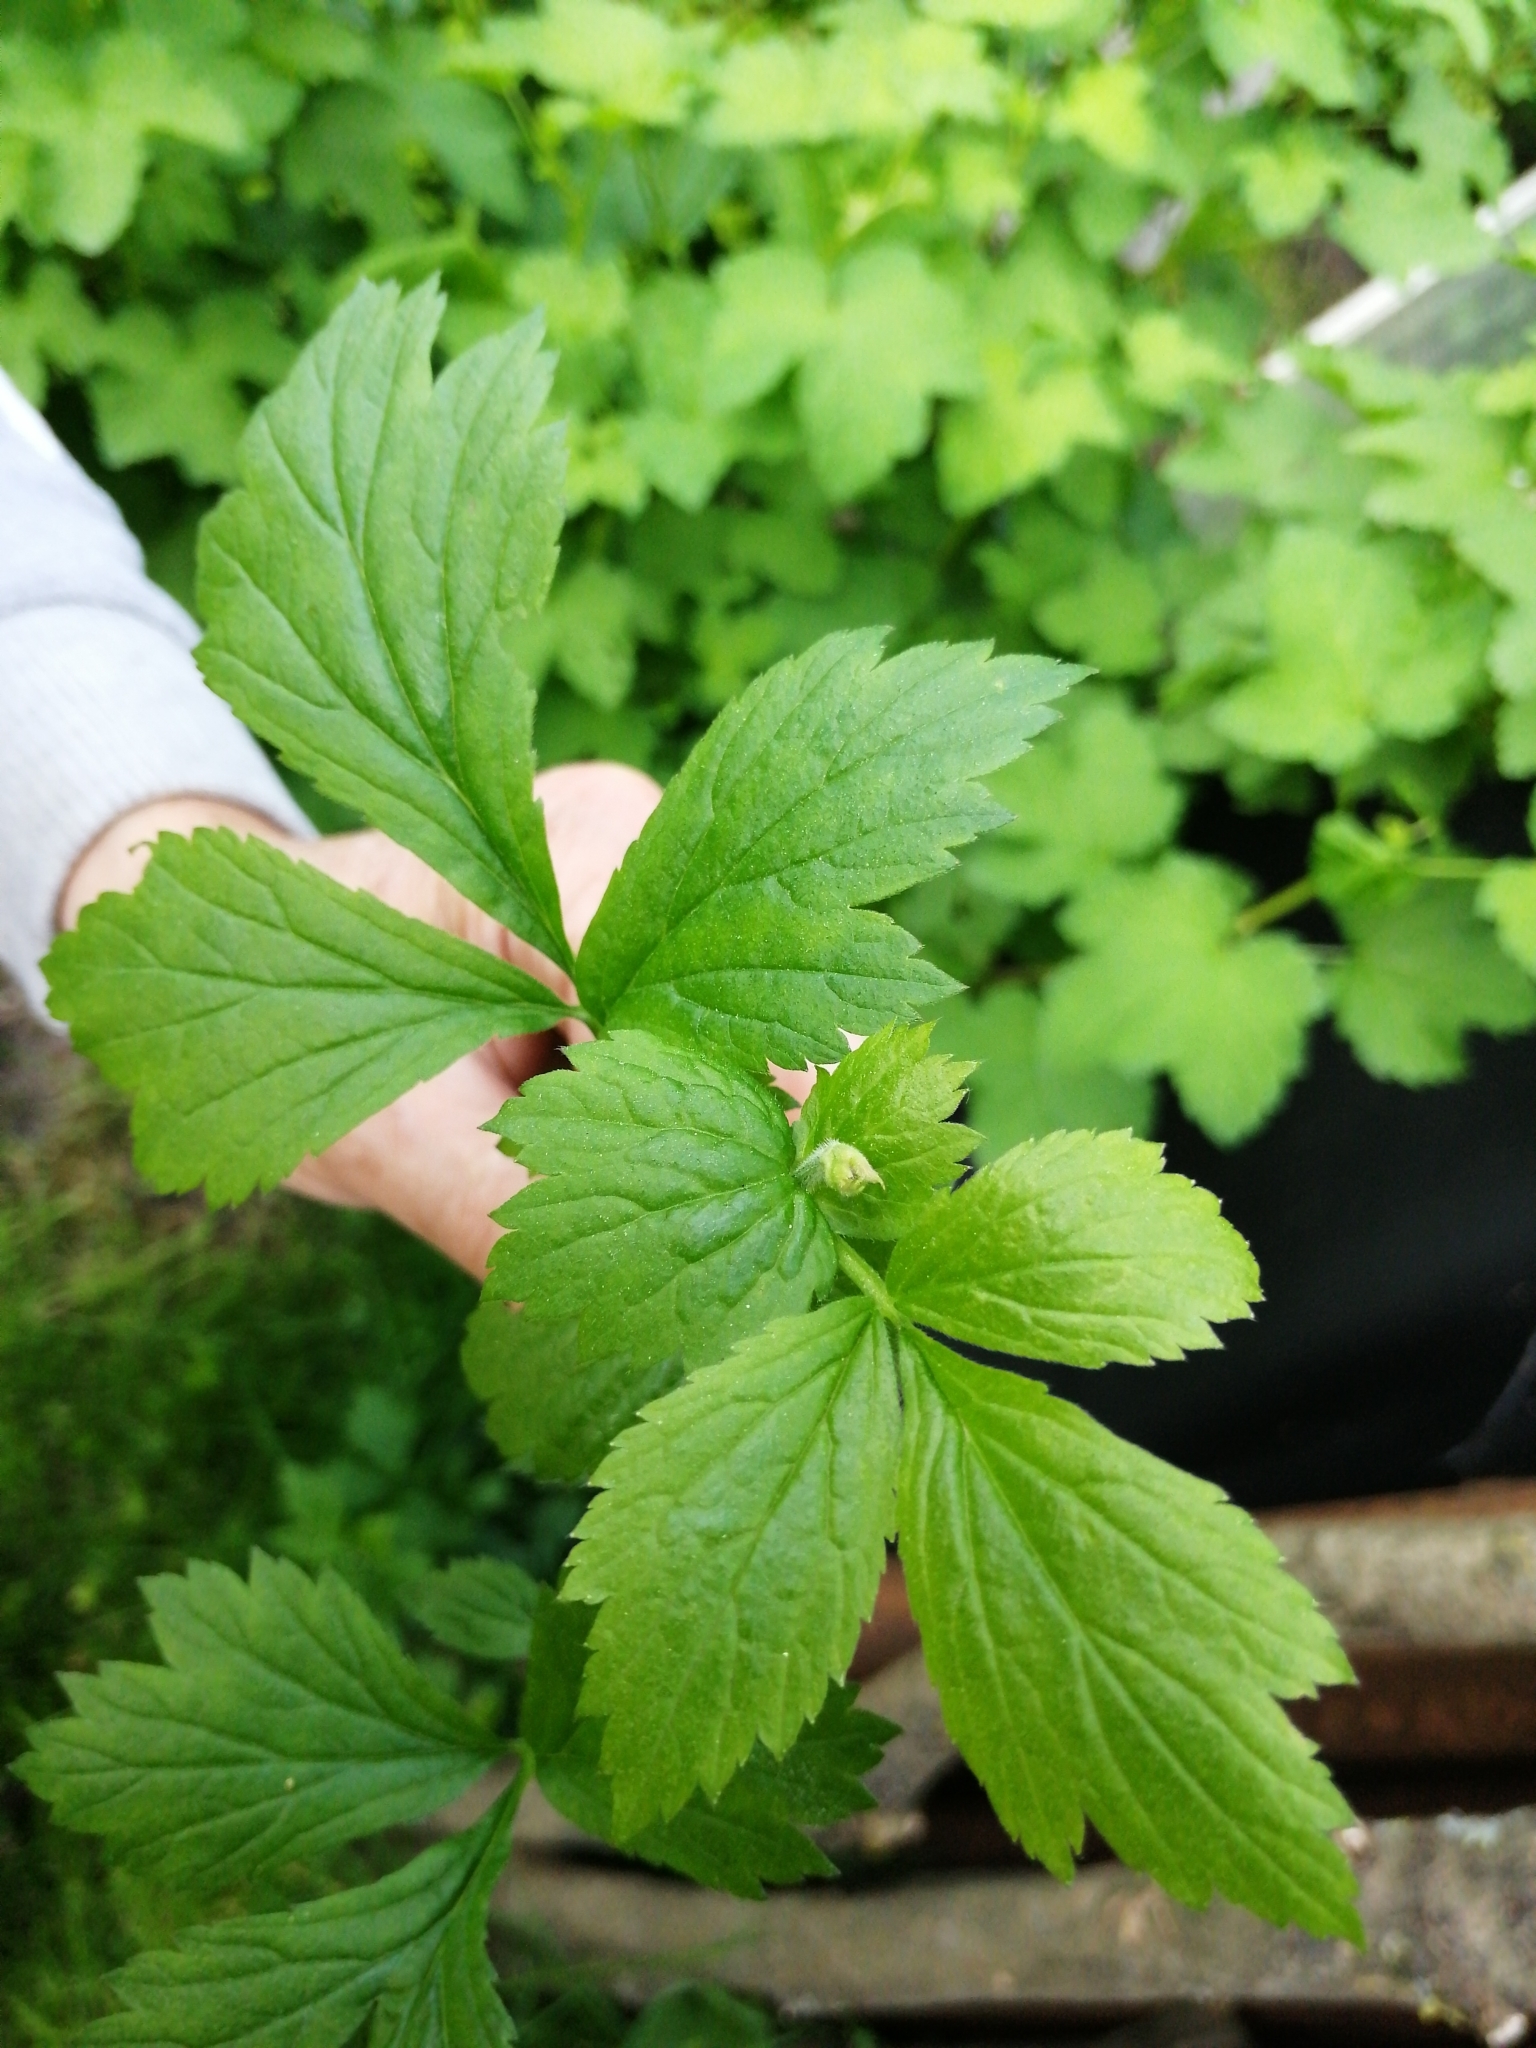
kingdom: Plantae
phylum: Tracheophyta
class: Magnoliopsida
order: Rosales
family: Rosaceae
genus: Geum
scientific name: Geum urbanum
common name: Wood avens
